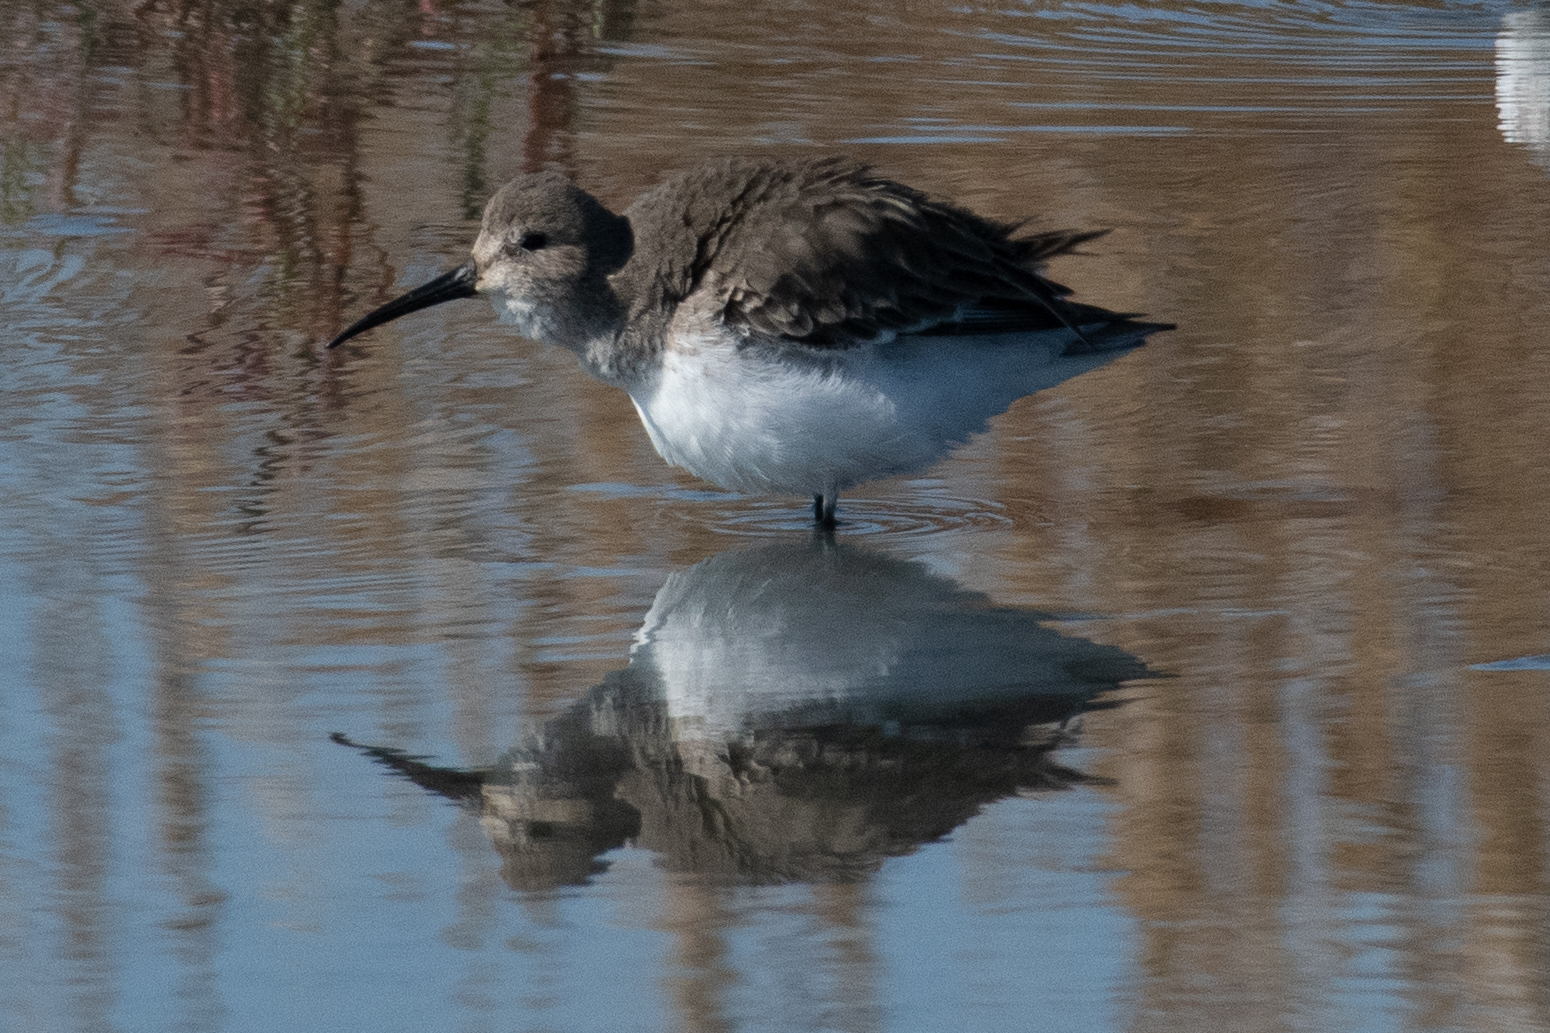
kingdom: Animalia
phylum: Chordata
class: Aves
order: Charadriiformes
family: Scolopacidae
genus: Calidris
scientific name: Calidris alpina
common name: Dunlin
